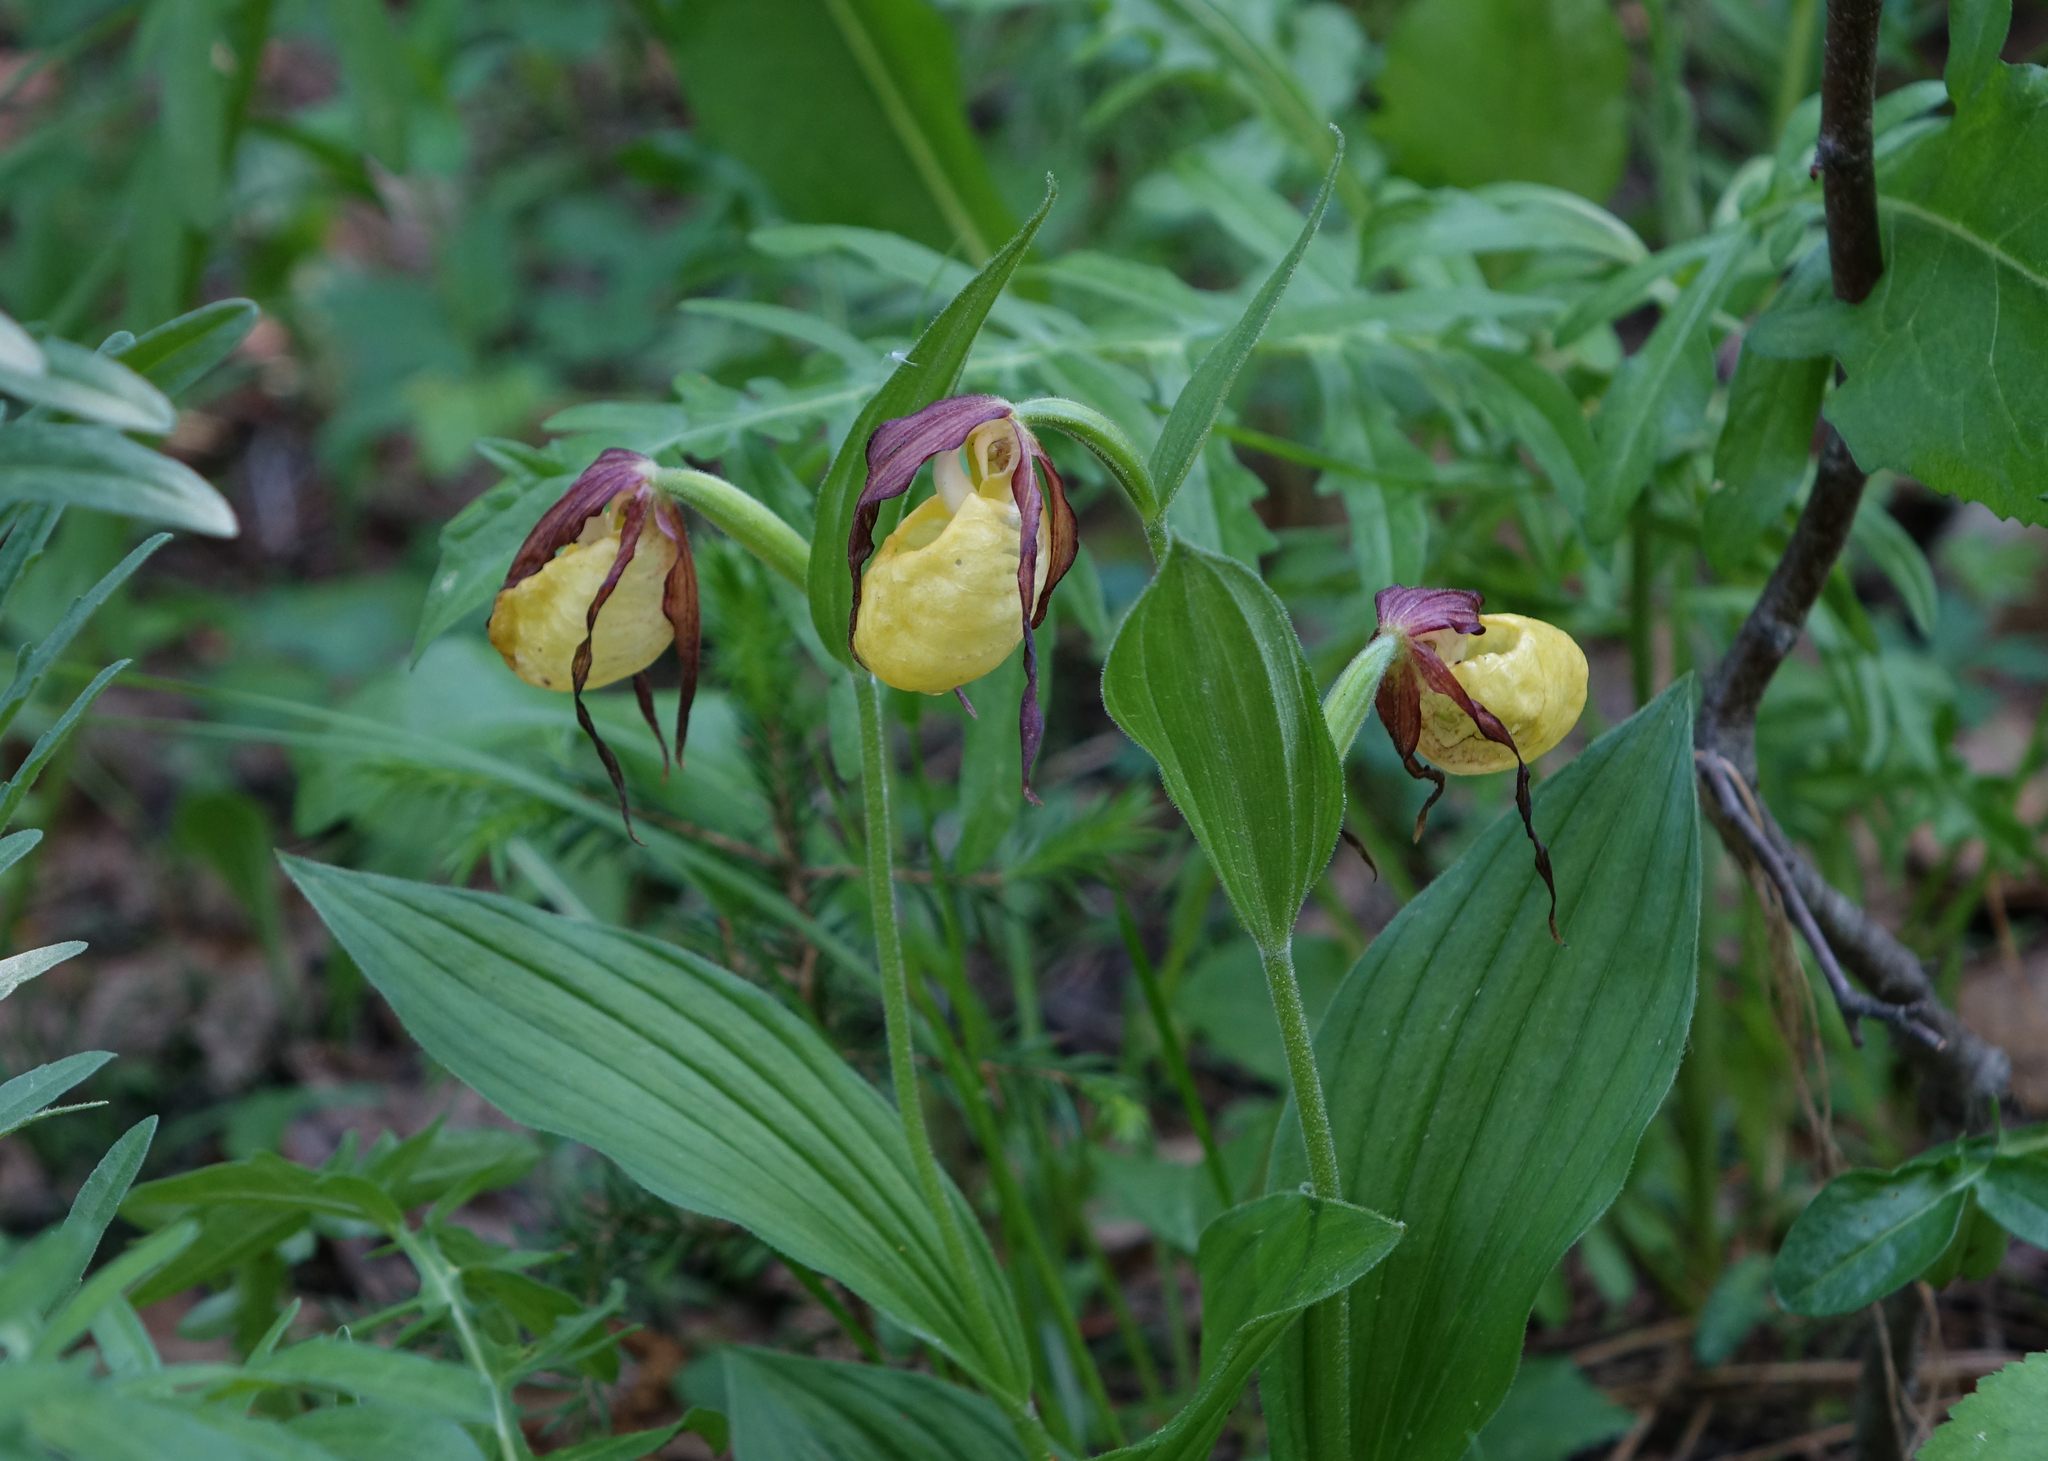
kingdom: Plantae
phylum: Tracheophyta
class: Liliopsida
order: Asparagales
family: Orchidaceae
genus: Cypripedium
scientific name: Cypripedium calceolus
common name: Lady's-slipper
